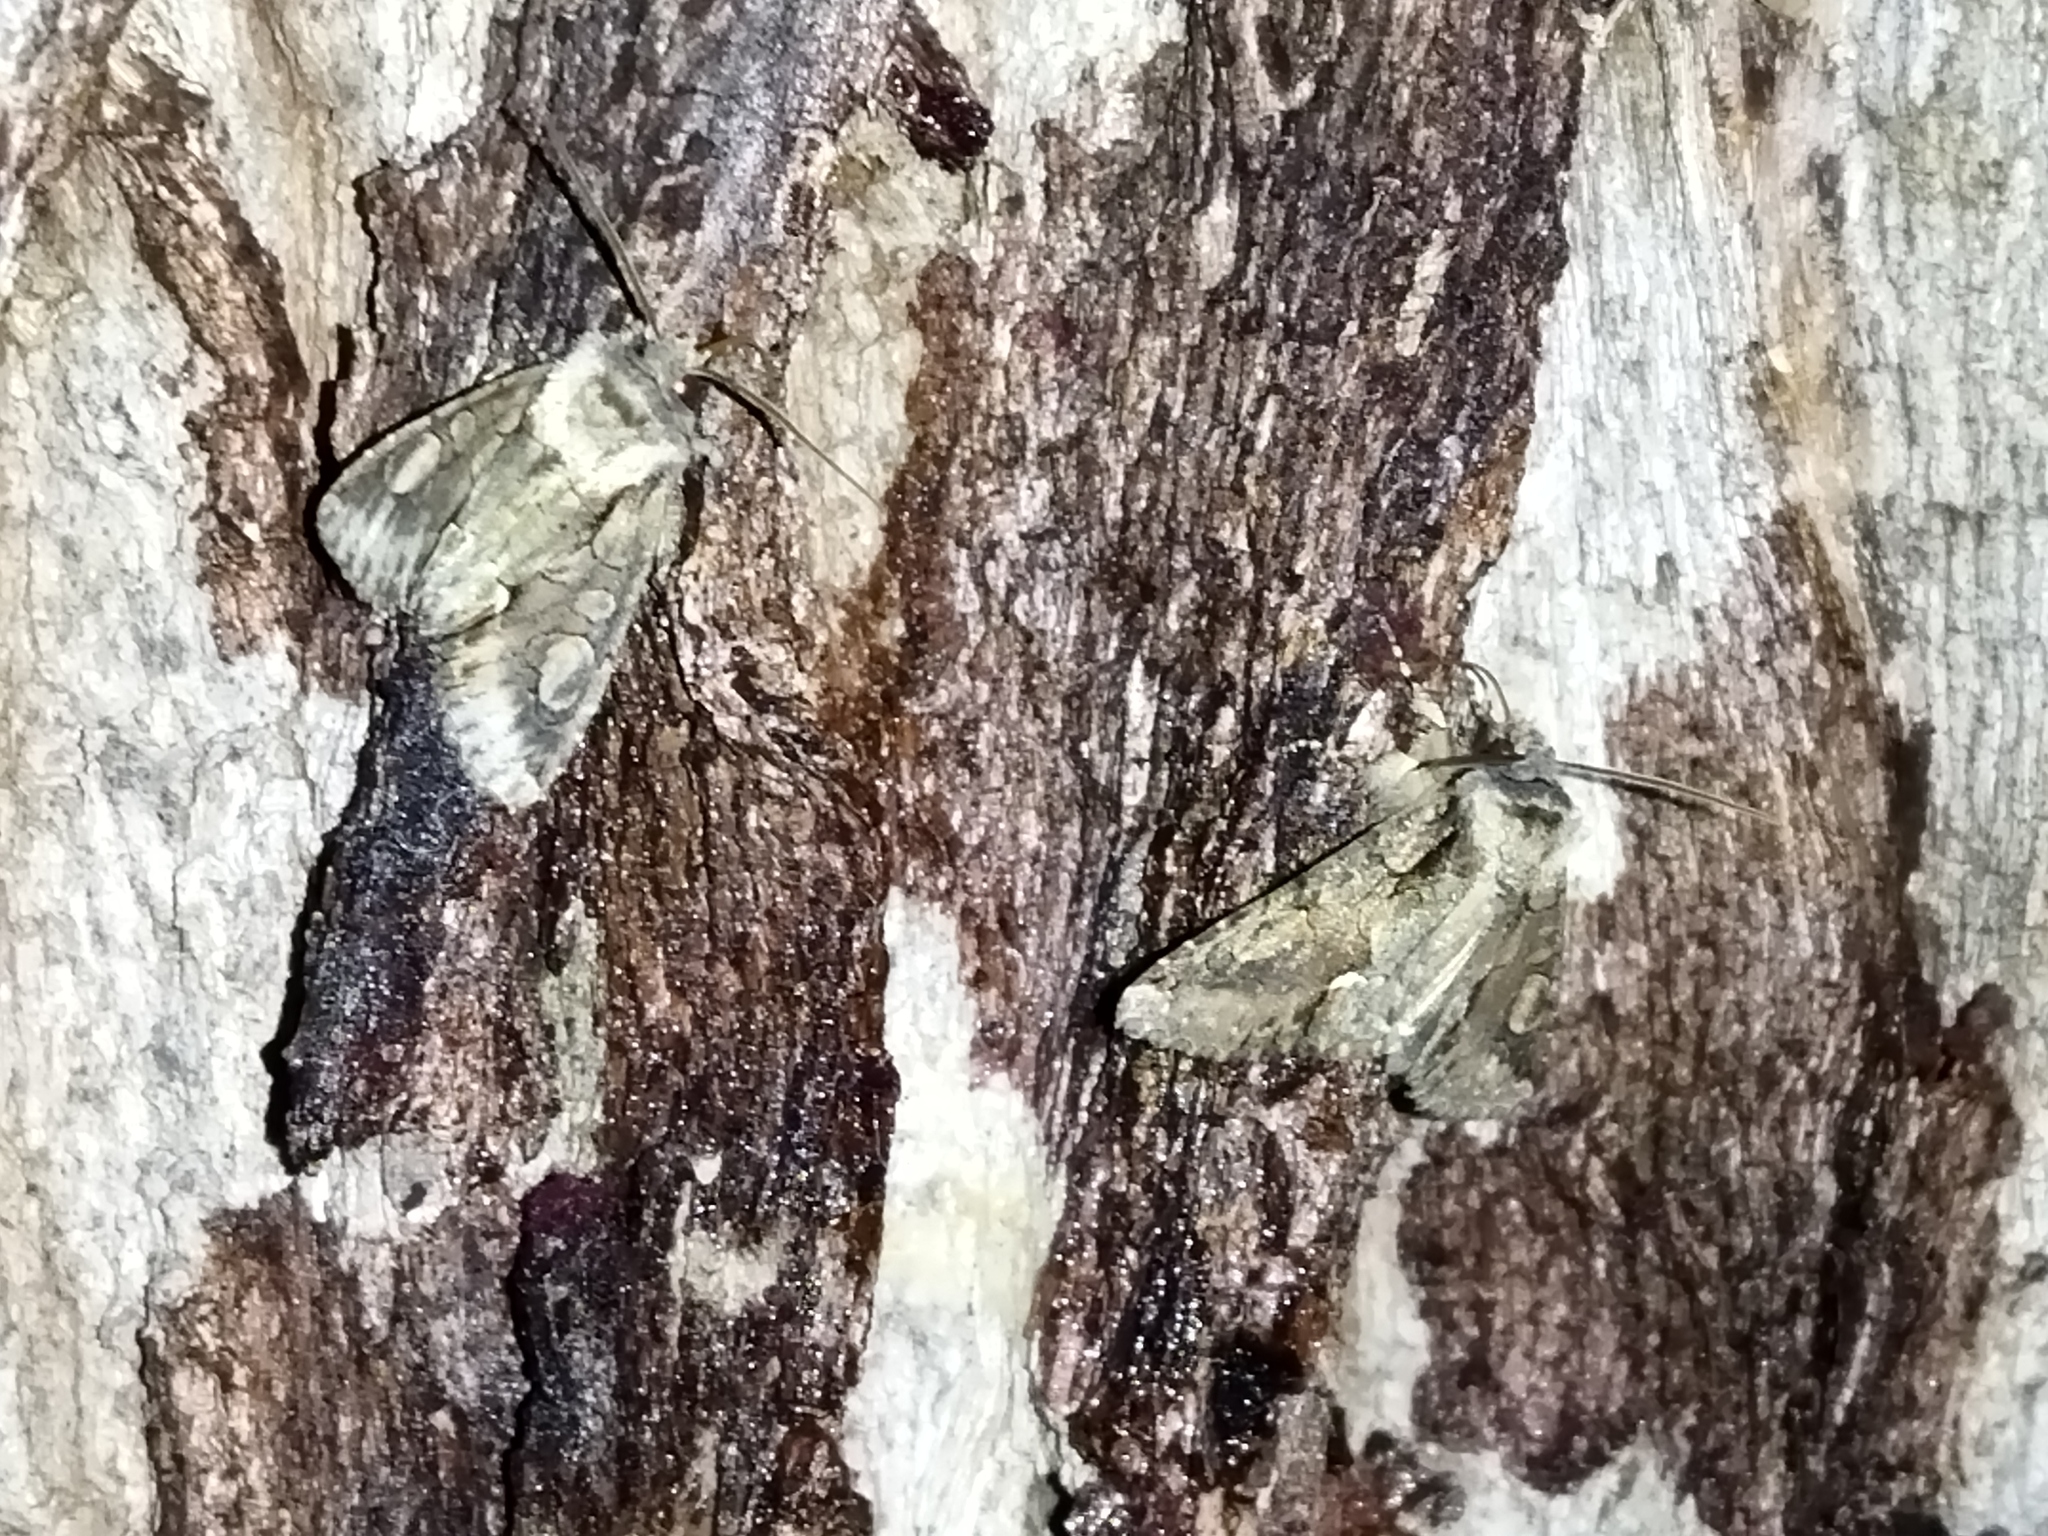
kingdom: Animalia
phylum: Arthropoda
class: Insecta
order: Lepidoptera
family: Noctuidae
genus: Allophyes
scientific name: Allophyes oxyacanthae
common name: Green-brindled crescent
